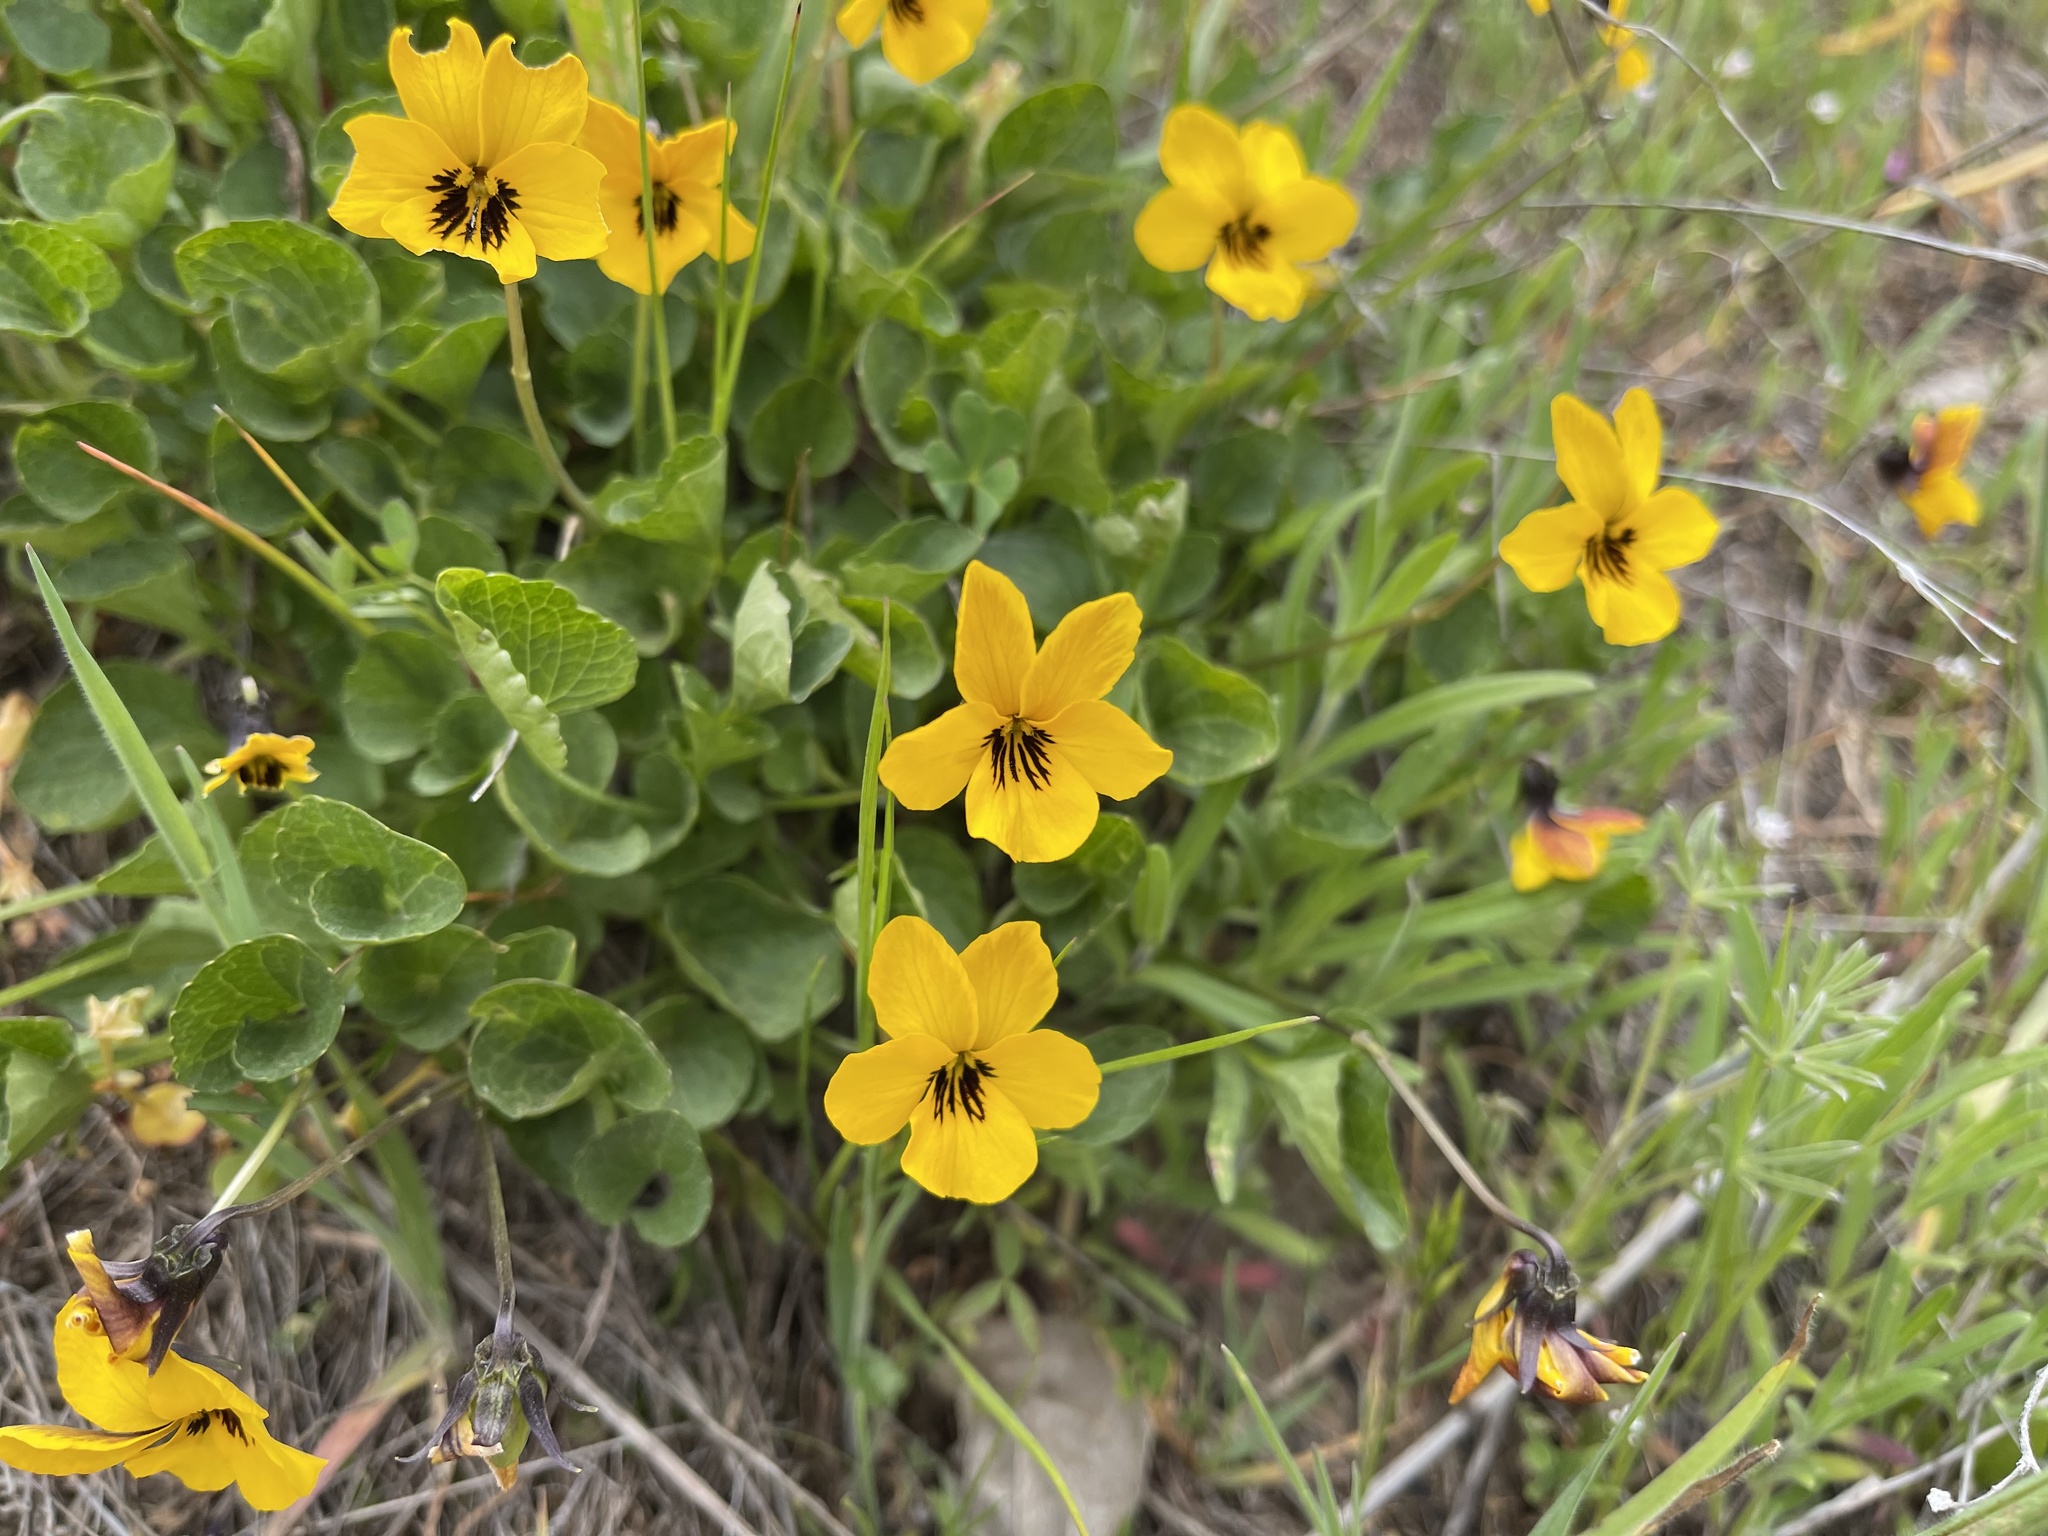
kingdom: Plantae
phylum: Tracheophyta
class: Magnoliopsida
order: Malpighiales
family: Violaceae
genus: Viola
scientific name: Viola pedunculata
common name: California golden violet
